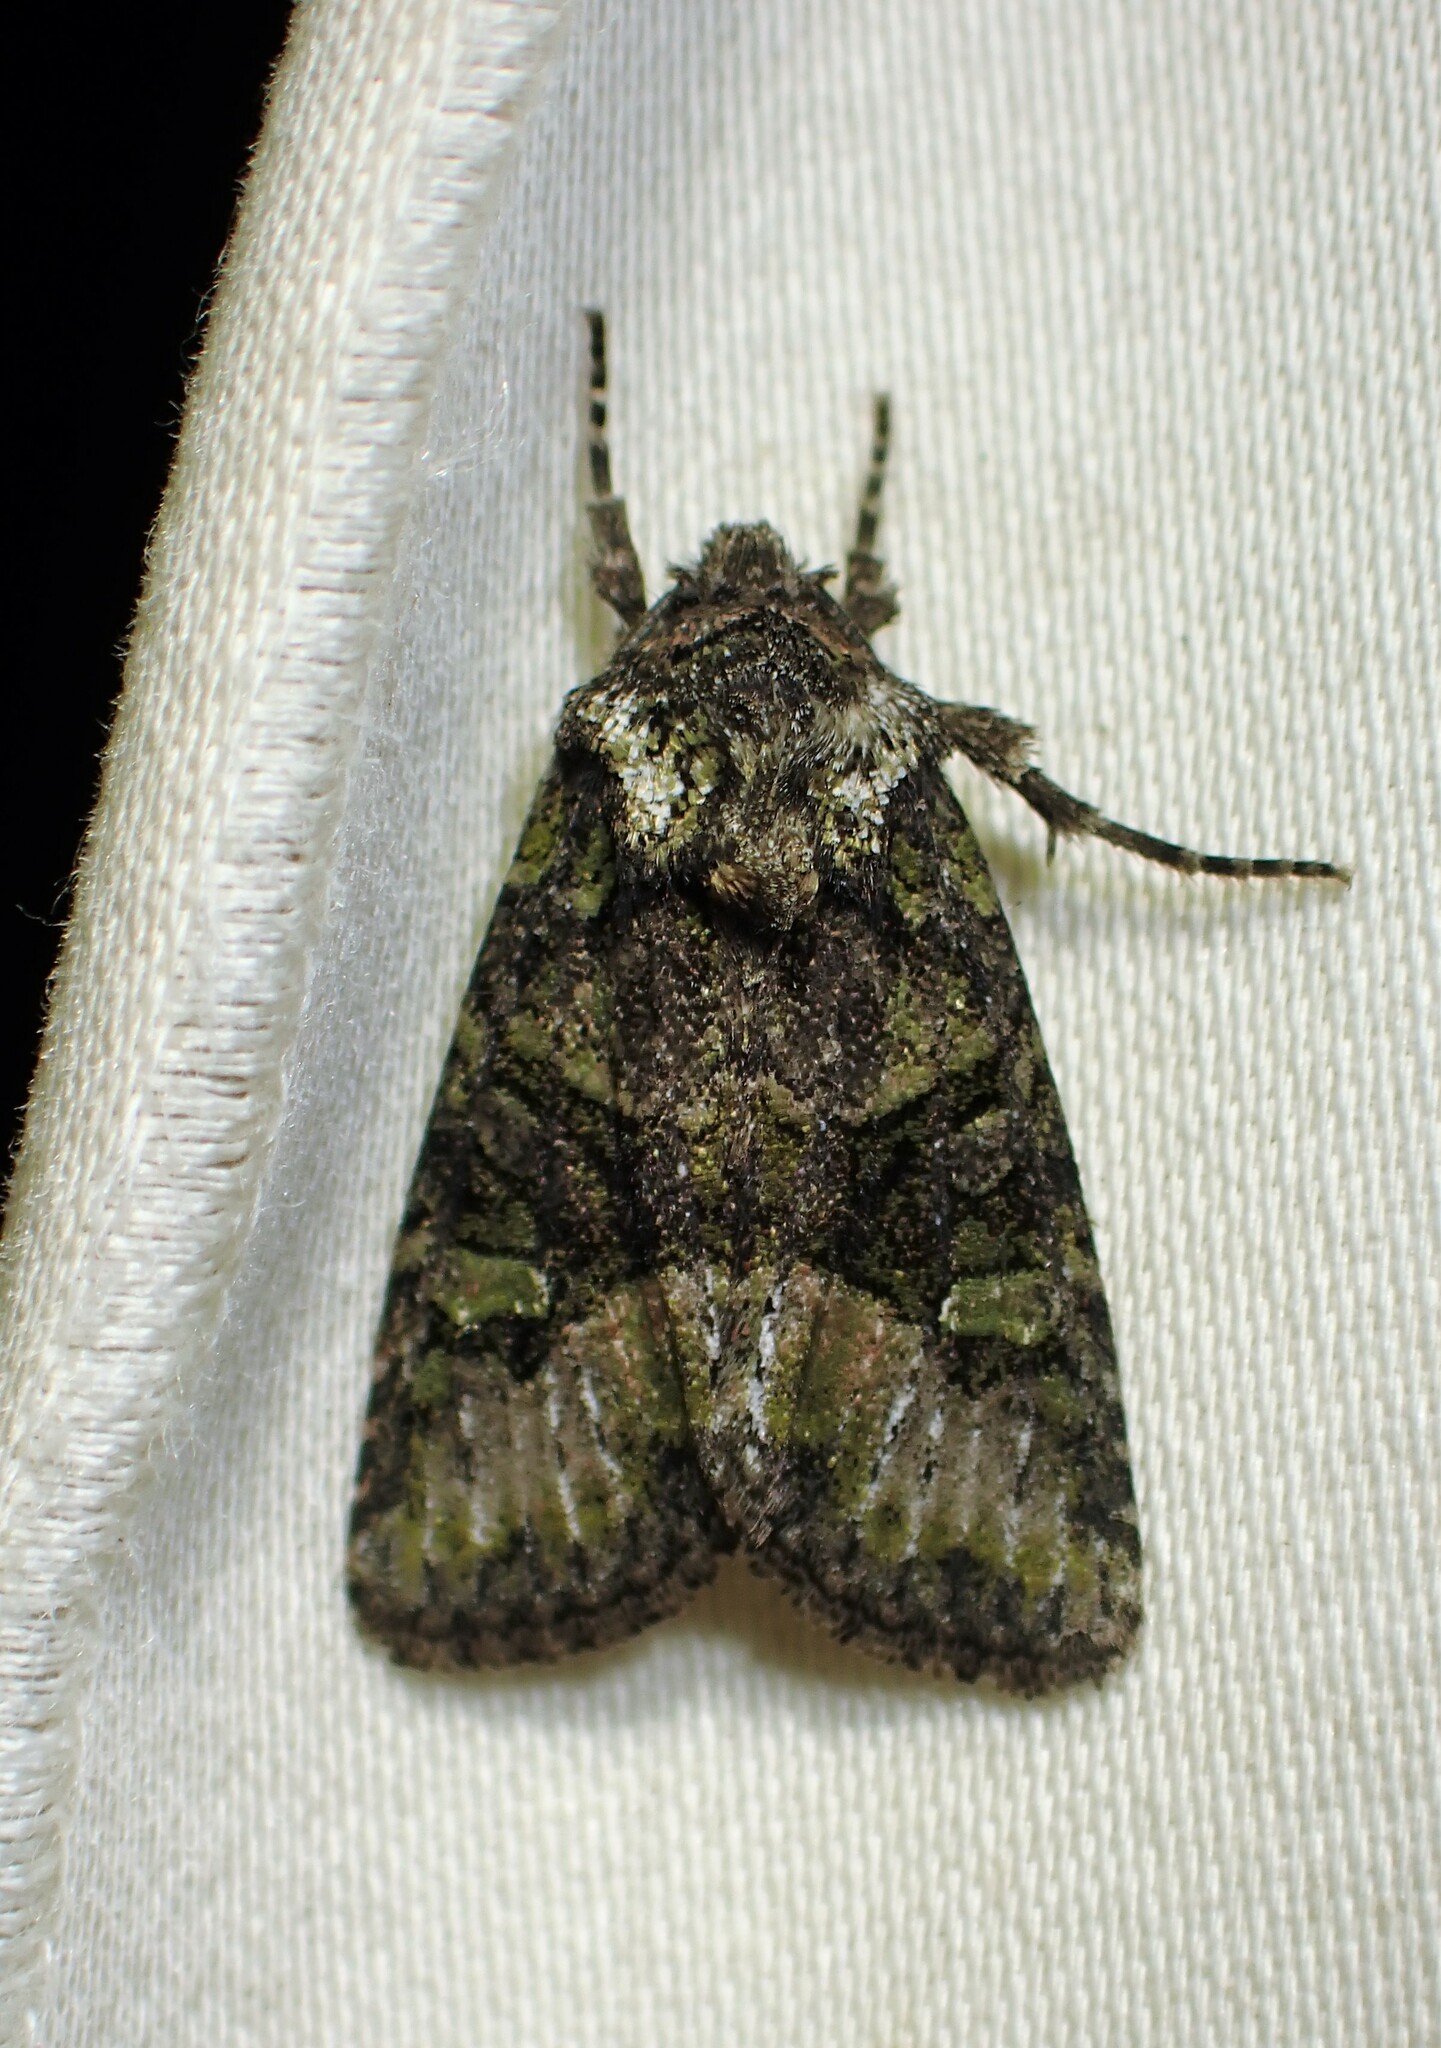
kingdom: Animalia
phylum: Arthropoda
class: Insecta
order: Lepidoptera
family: Noctuidae
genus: Lacinipolia
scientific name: Lacinipolia olivacea
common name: Olive arches moth
